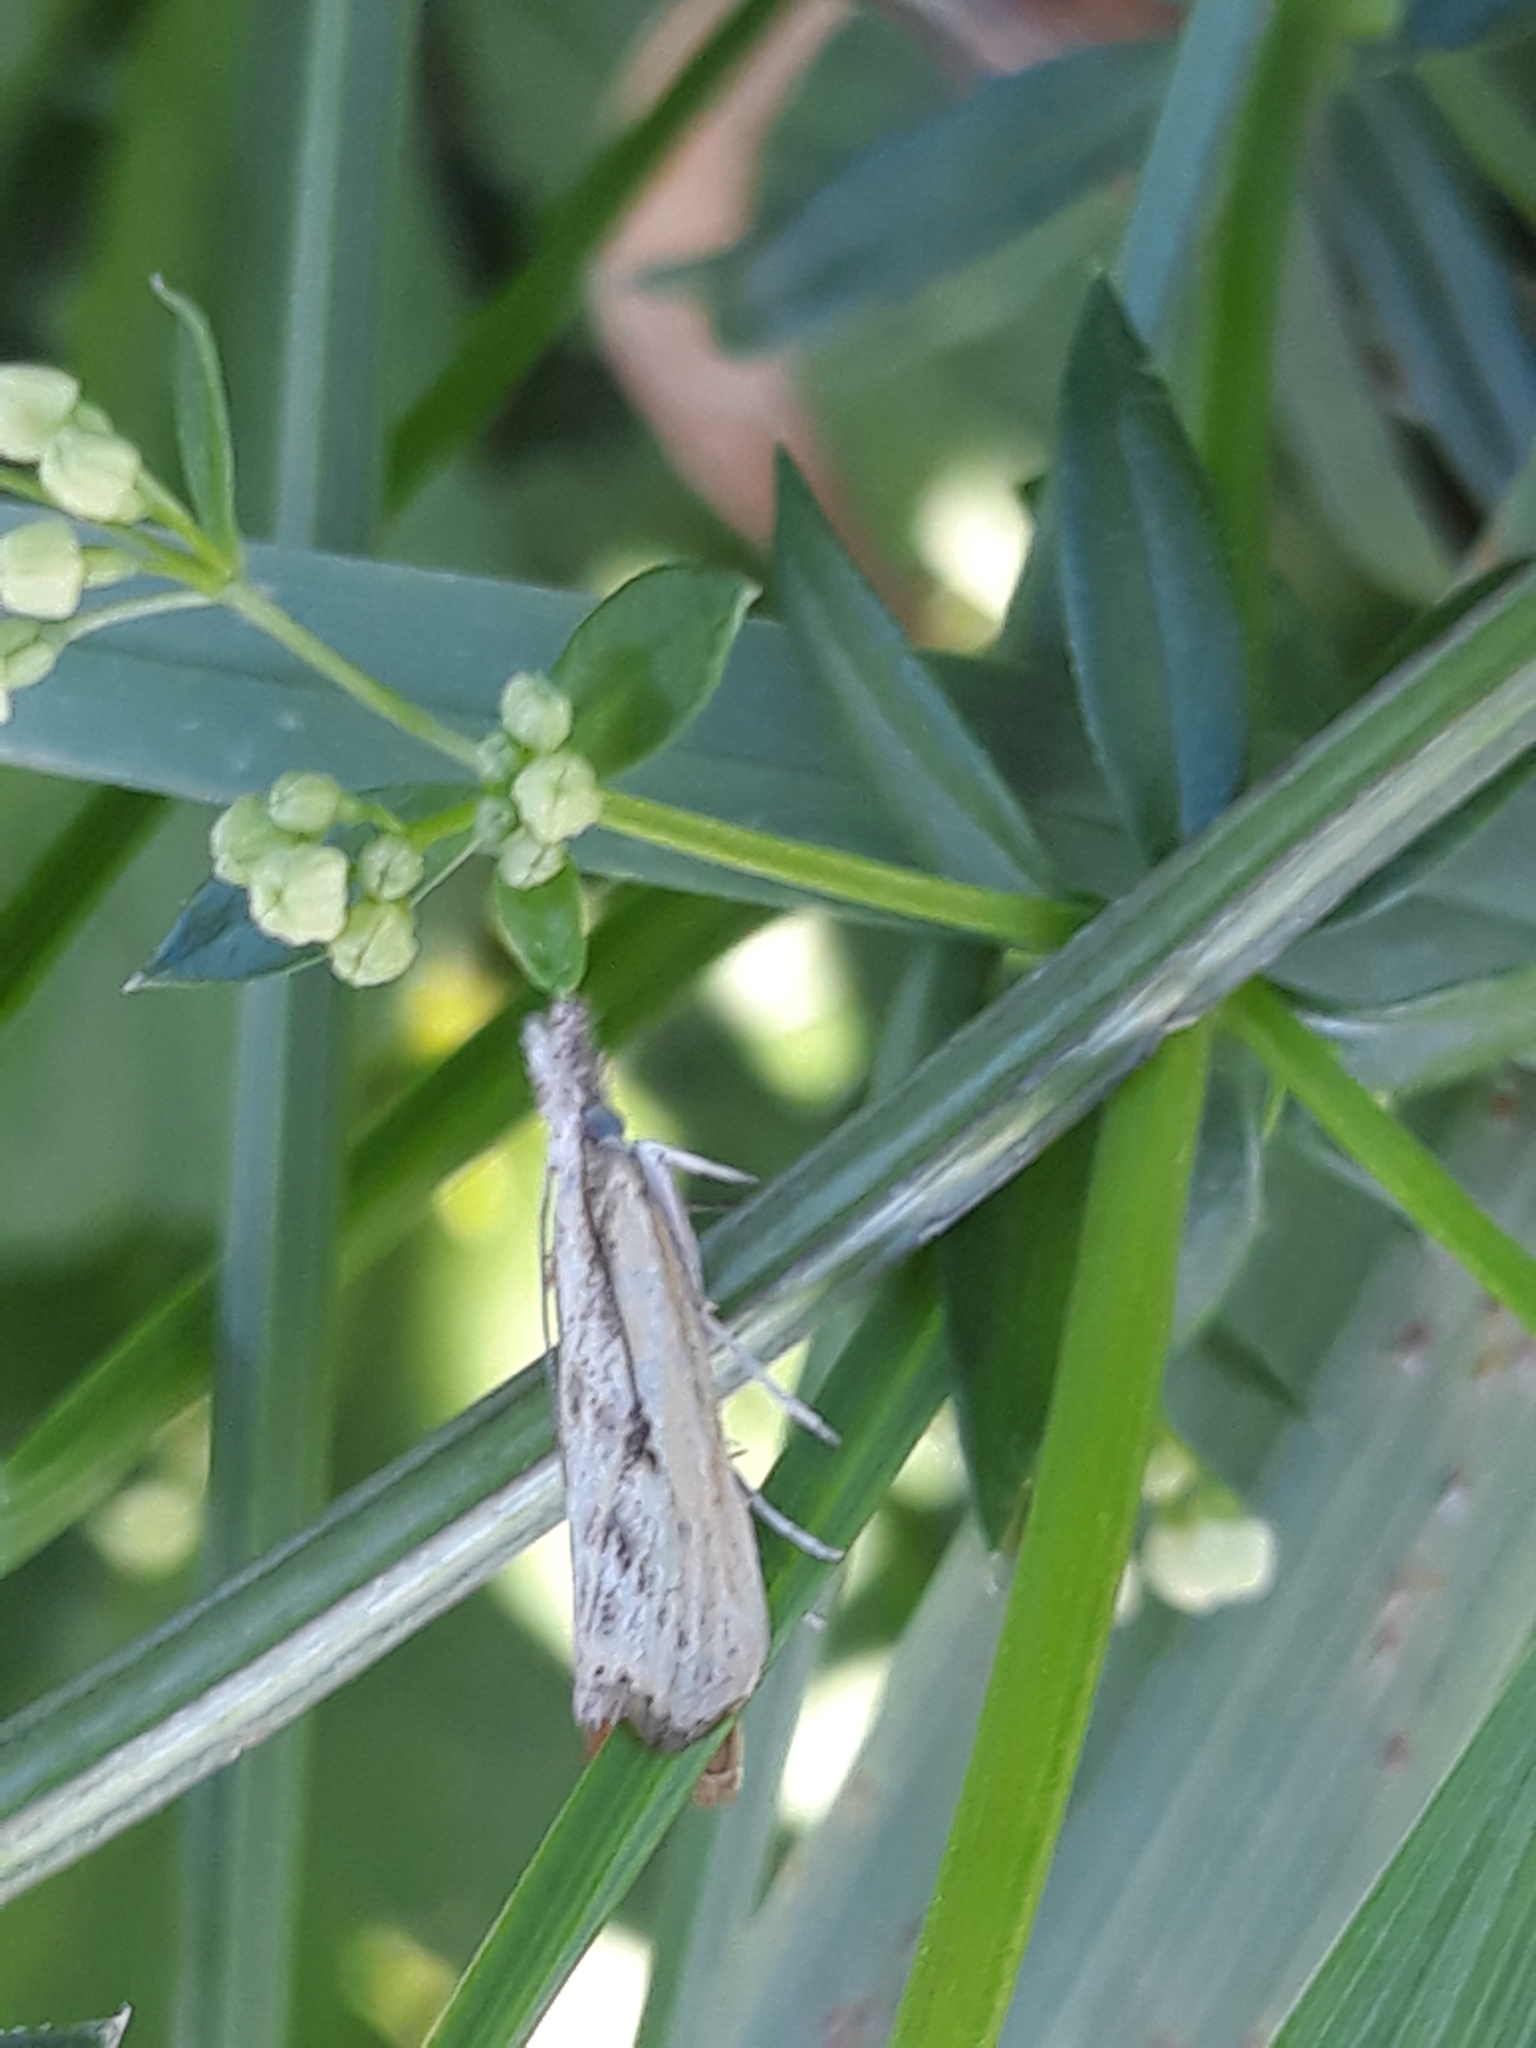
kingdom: Animalia
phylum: Arthropoda
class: Insecta
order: Lepidoptera
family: Crambidae
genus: Agriphila
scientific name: Agriphila inquinatella
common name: Barred grass-veneer
